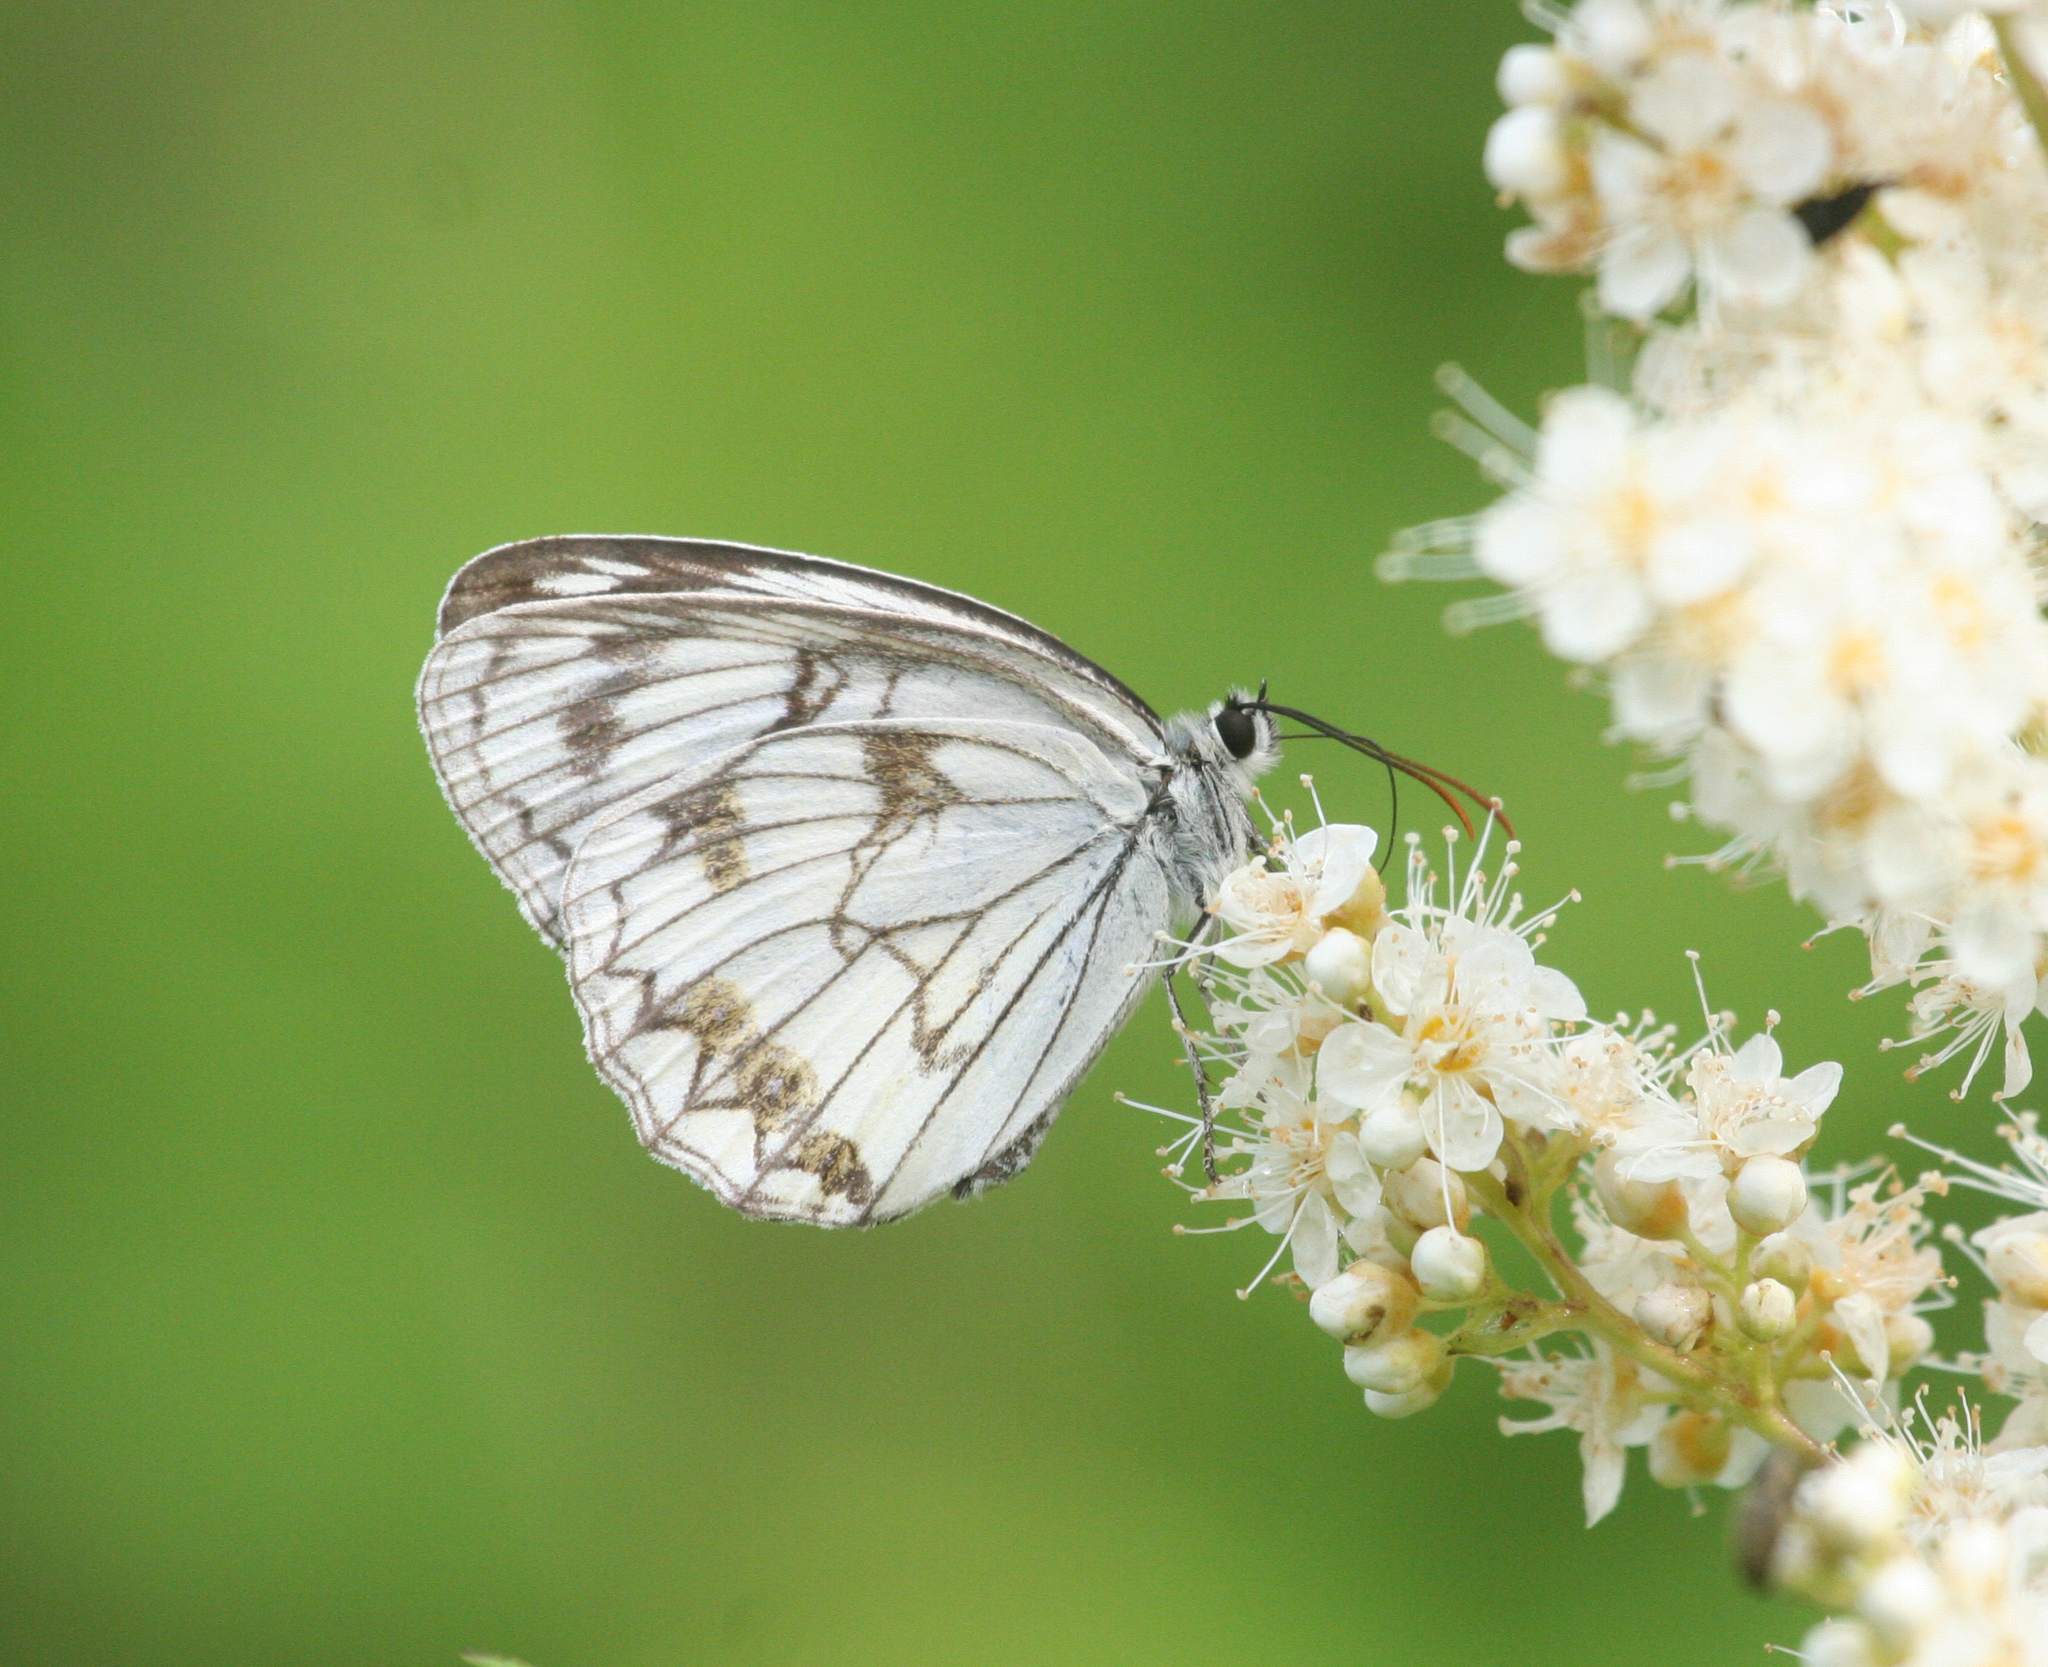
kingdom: Animalia
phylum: Arthropoda
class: Insecta
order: Lepidoptera
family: Nymphalidae
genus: Melanargia
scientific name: Melanargia halimede
